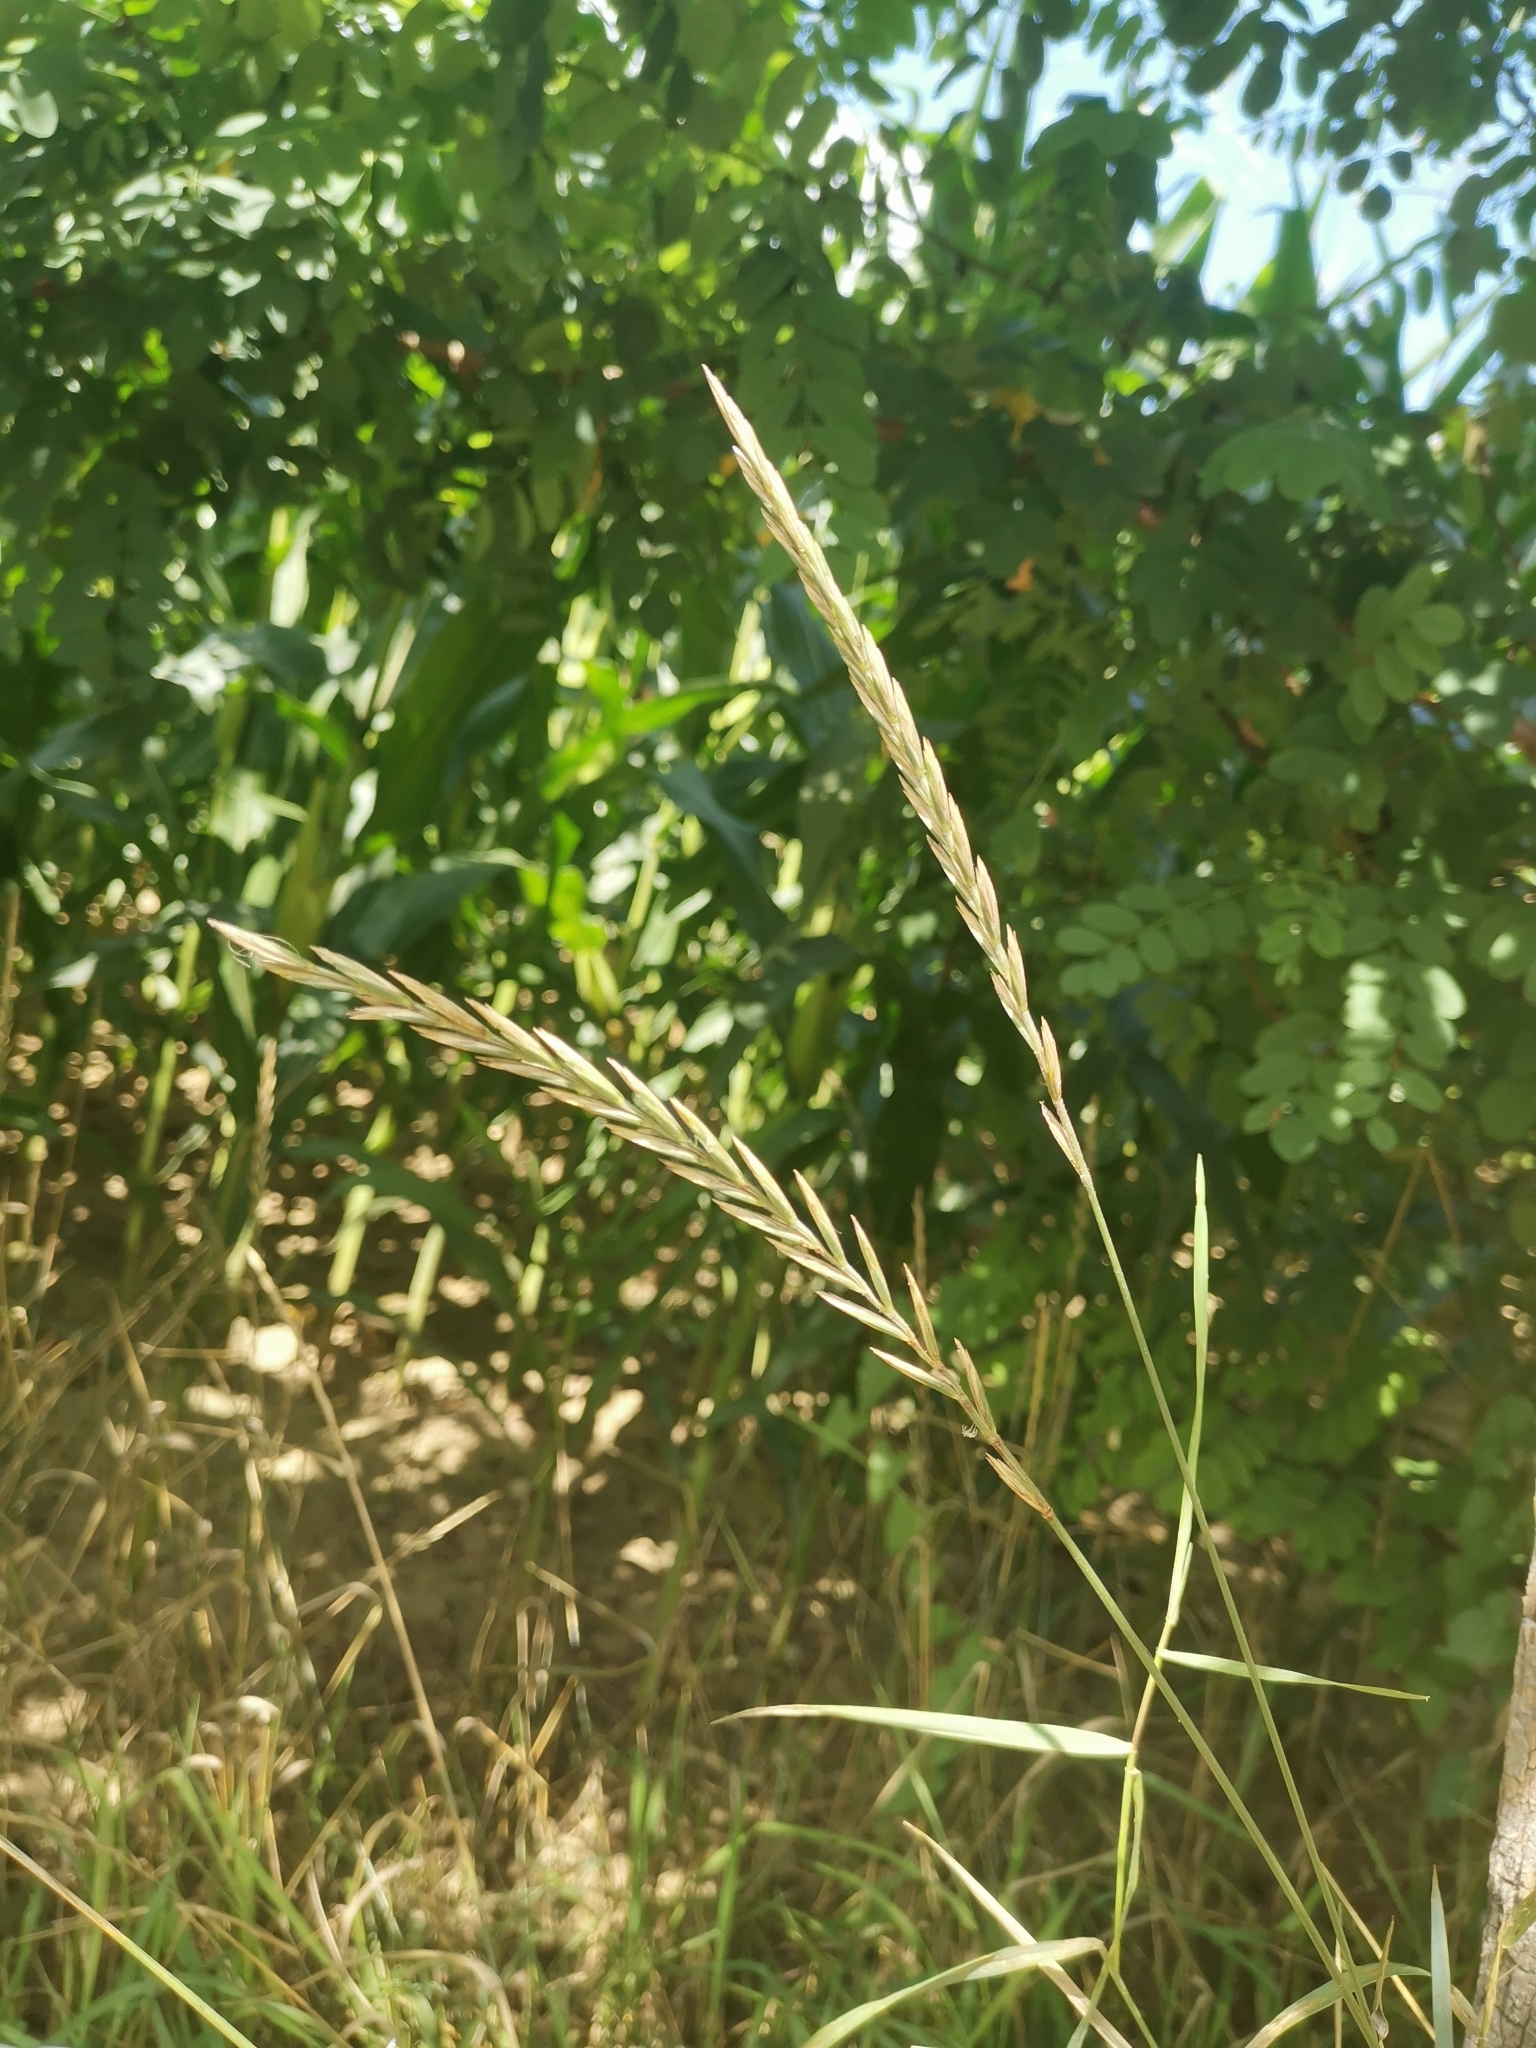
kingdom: Plantae
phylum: Tracheophyta
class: Liliopsida
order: Poales
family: Poaceae
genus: Elymus
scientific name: Elymus repens
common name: Quackgrass
